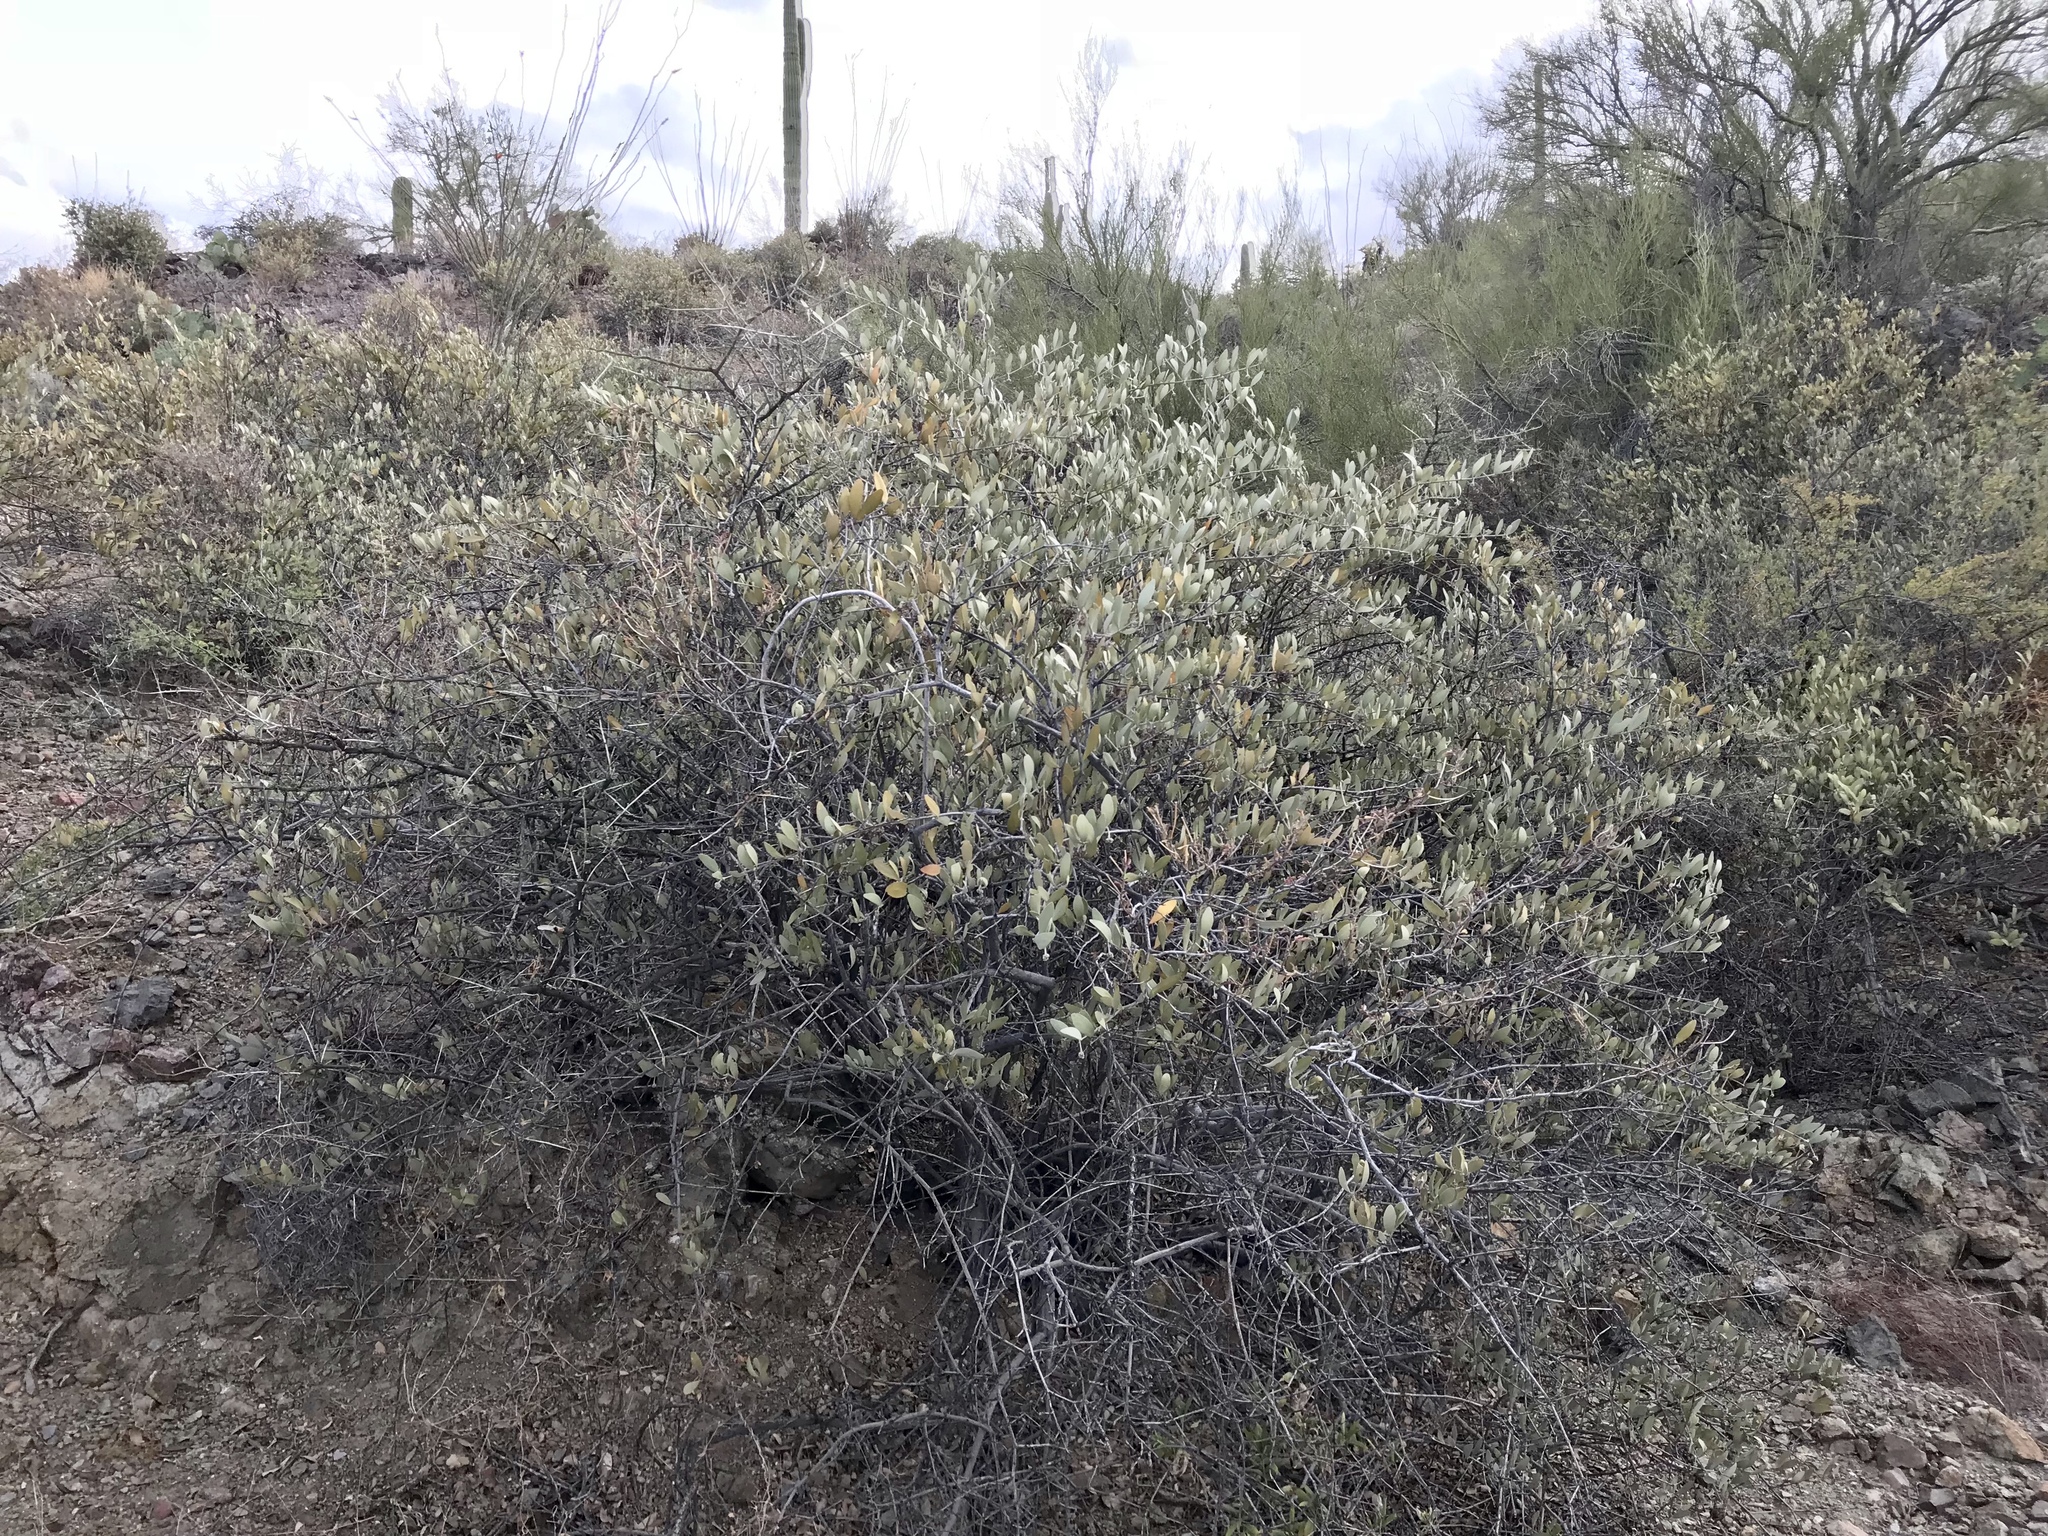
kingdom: Plantae
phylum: Tracheophyta
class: Magnoliopsida
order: Caryophyllales
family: Simmondsiaceae
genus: Simmondsia
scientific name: Simmondsia chinensis
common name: Jojoba
